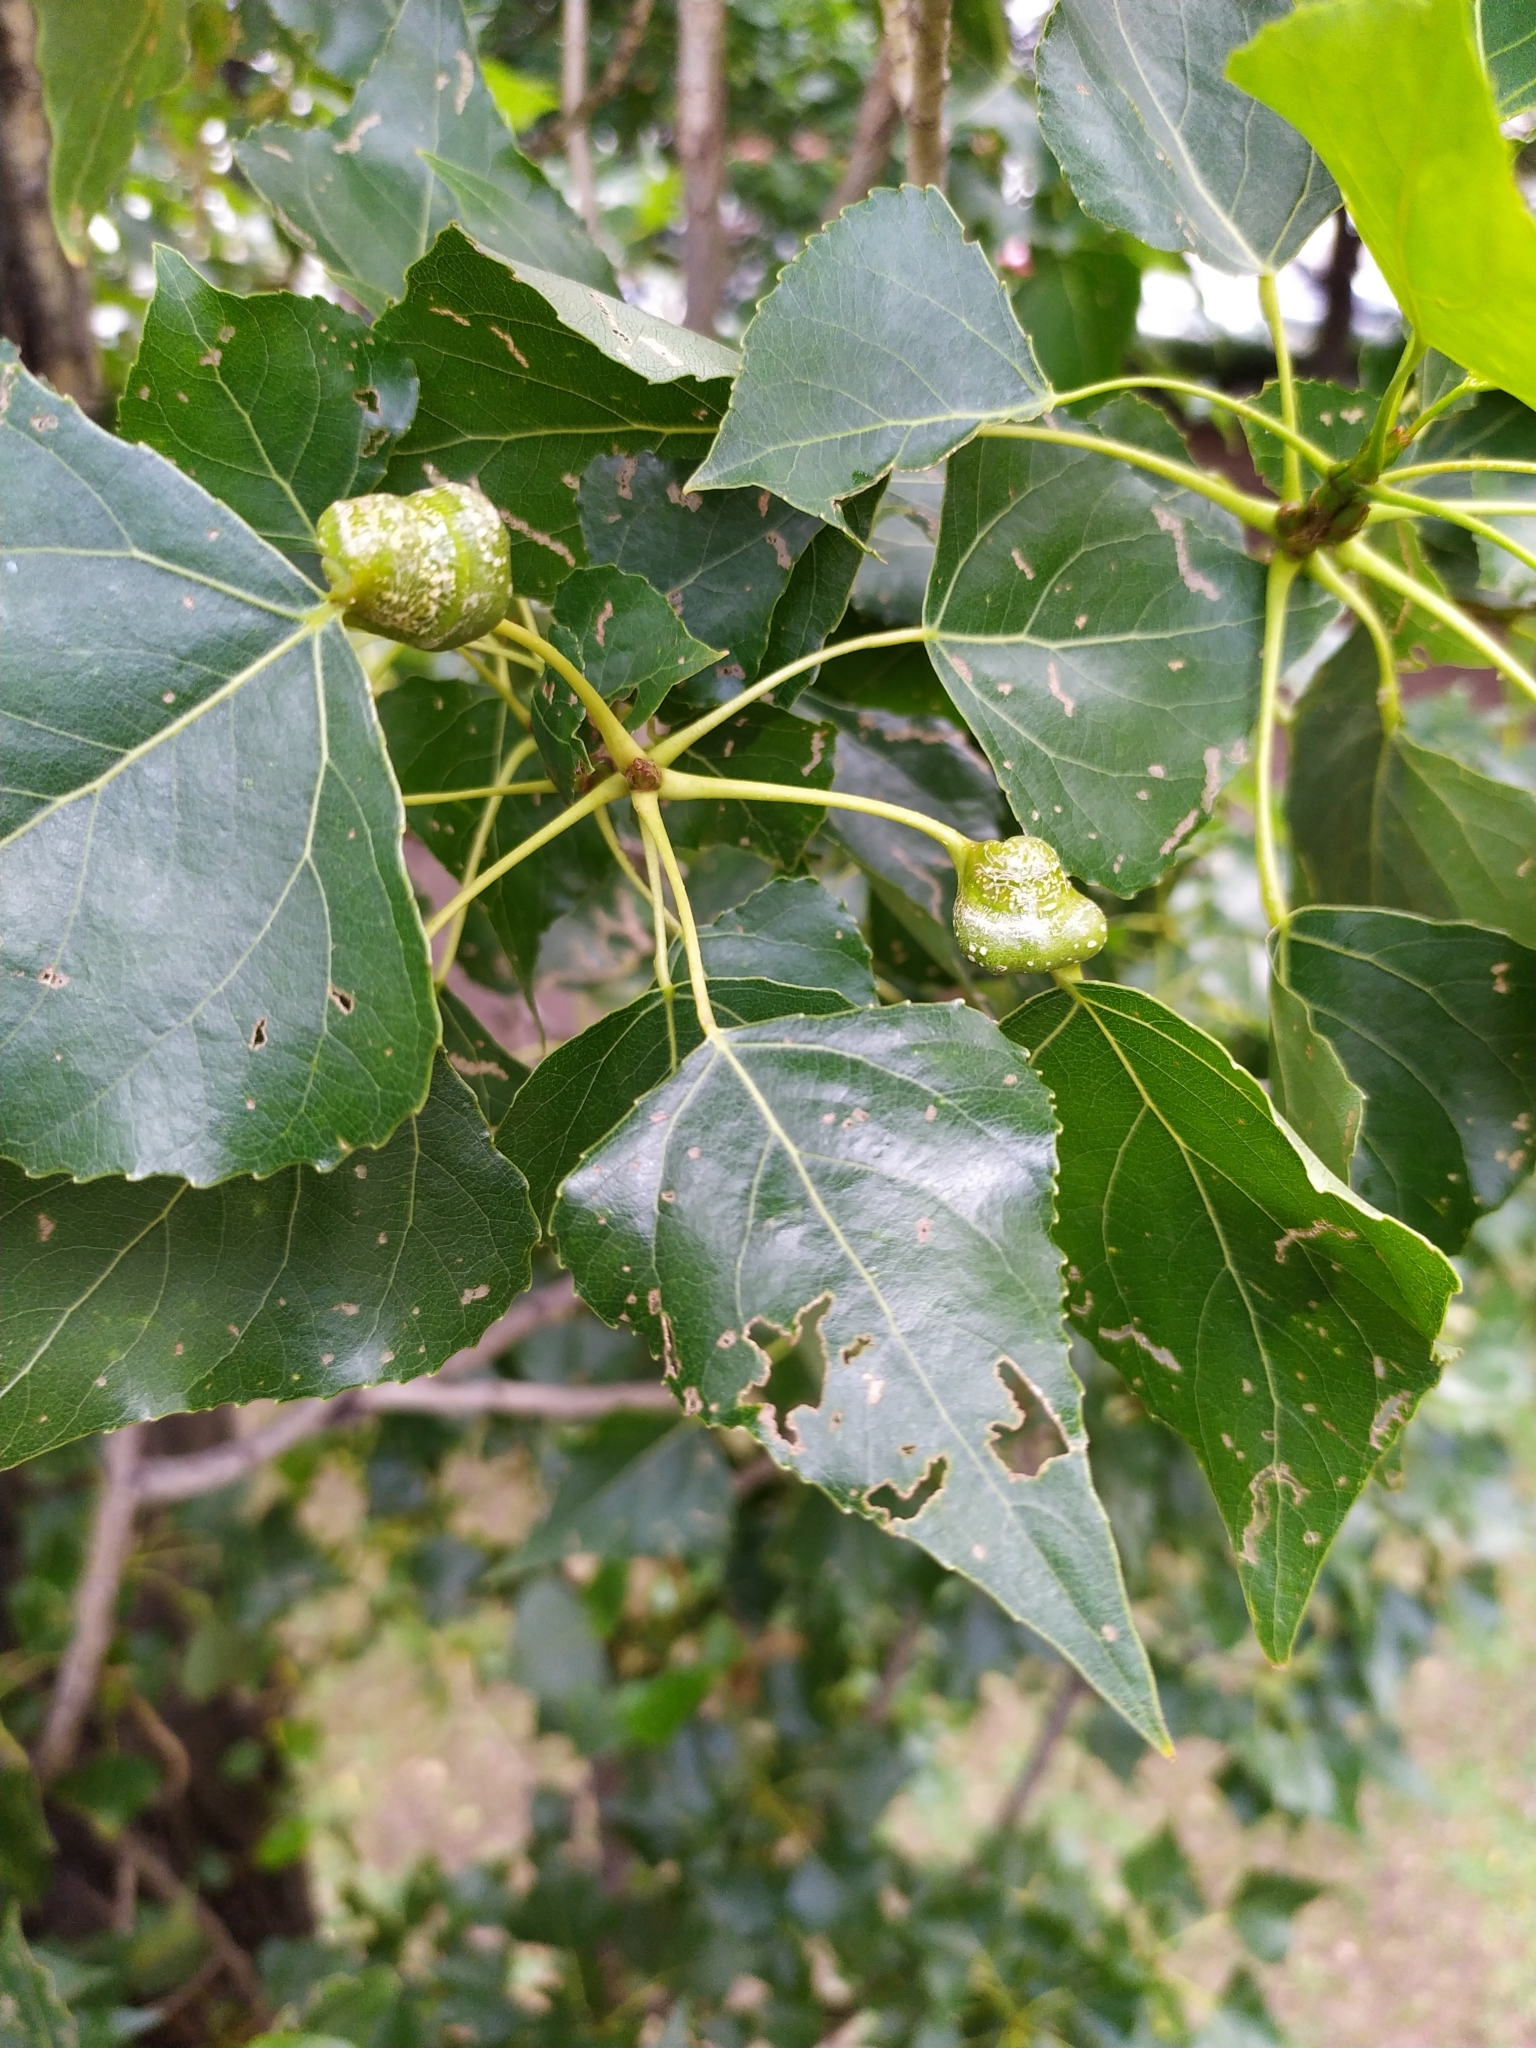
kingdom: Animalia
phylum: Arthropoda
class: Insecta
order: Hemiptera
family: Aphididae
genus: Pemphigus
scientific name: Pemphigus spyrothecae
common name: Aphid
